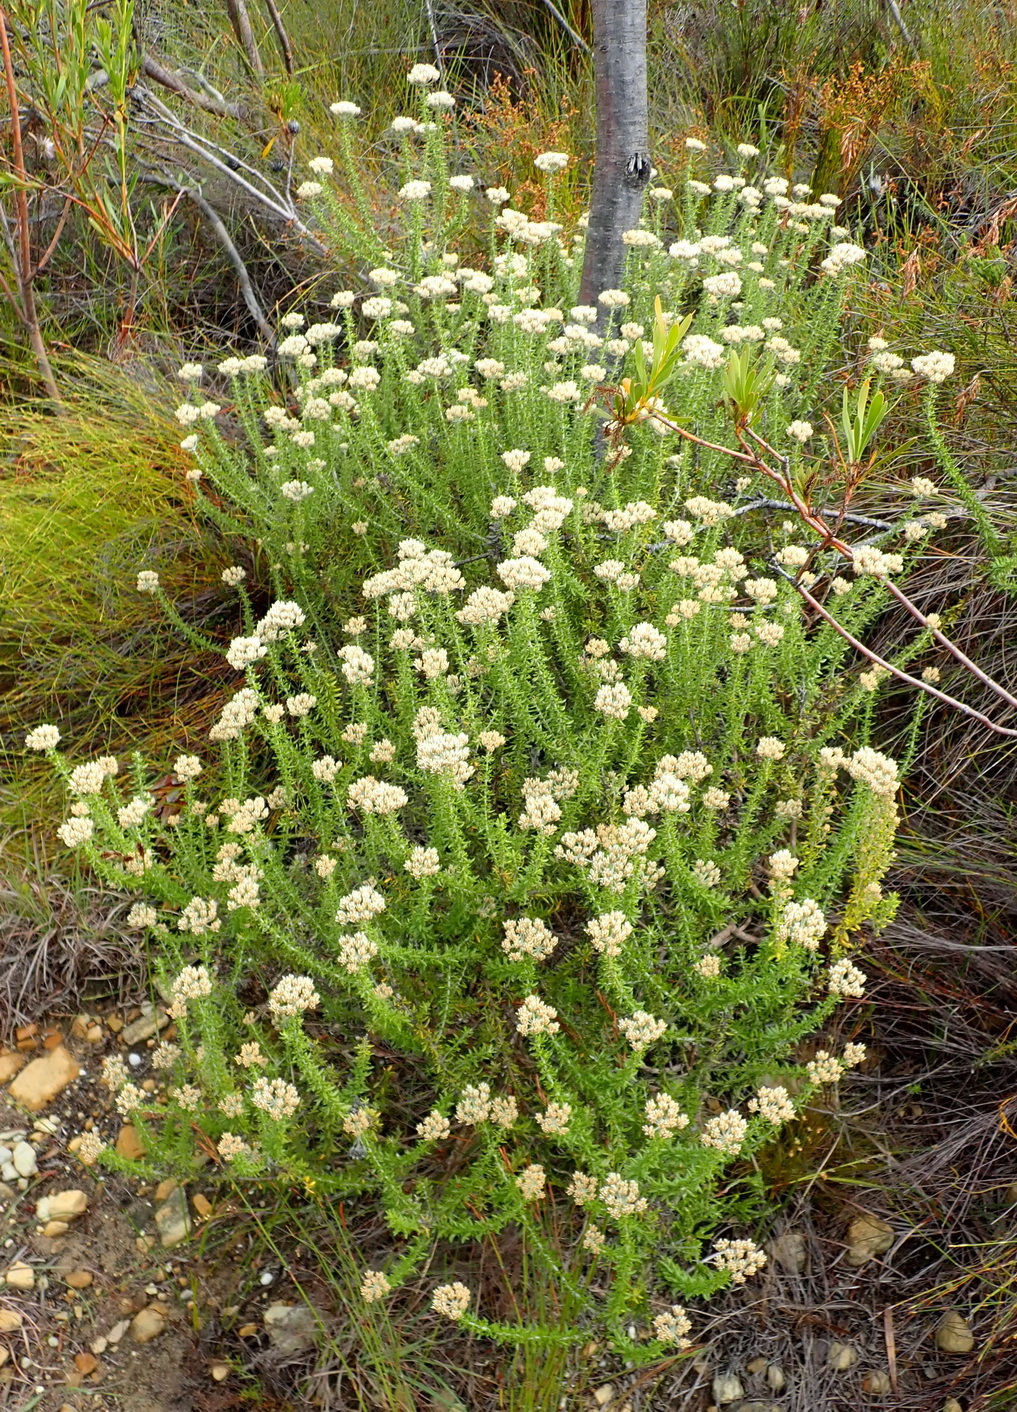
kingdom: Plantae
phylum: Tracheophyta
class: Magnoliopsida
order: Asterales
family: Asteraceae
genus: Metalasia
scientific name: Metalasia densa
